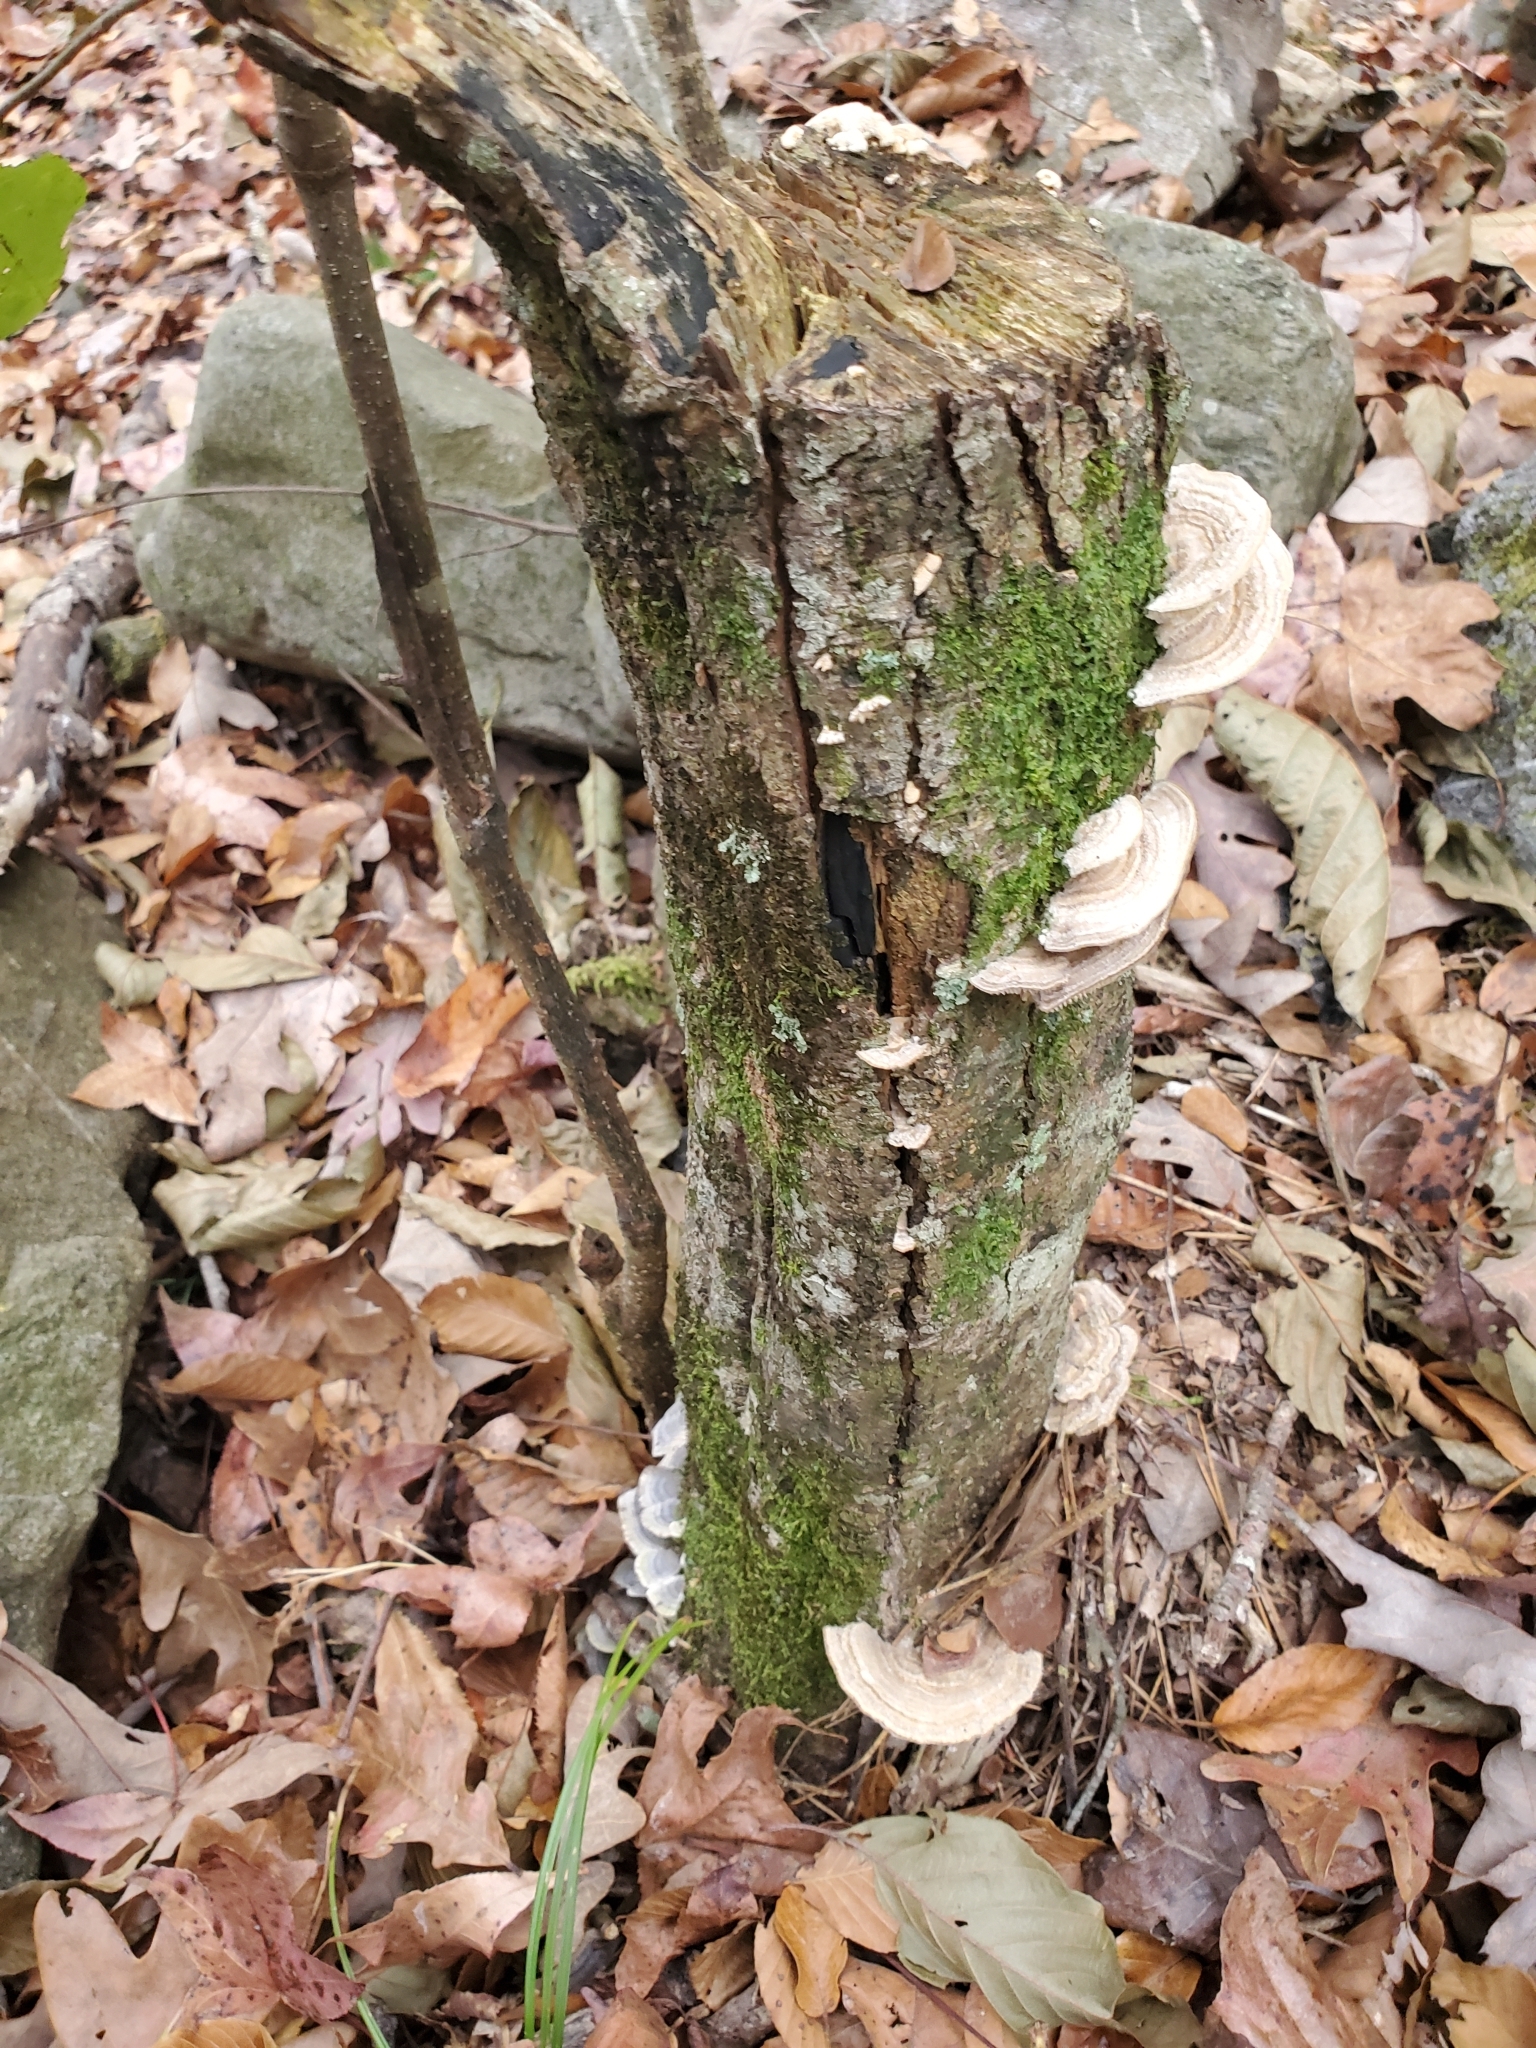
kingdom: Fungi
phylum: Basidiomycota
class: Agaricomycetes
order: Polyporales
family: Polyporaceae
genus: Lenzites
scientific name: Lenzites betulinus
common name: Birch mazegill
